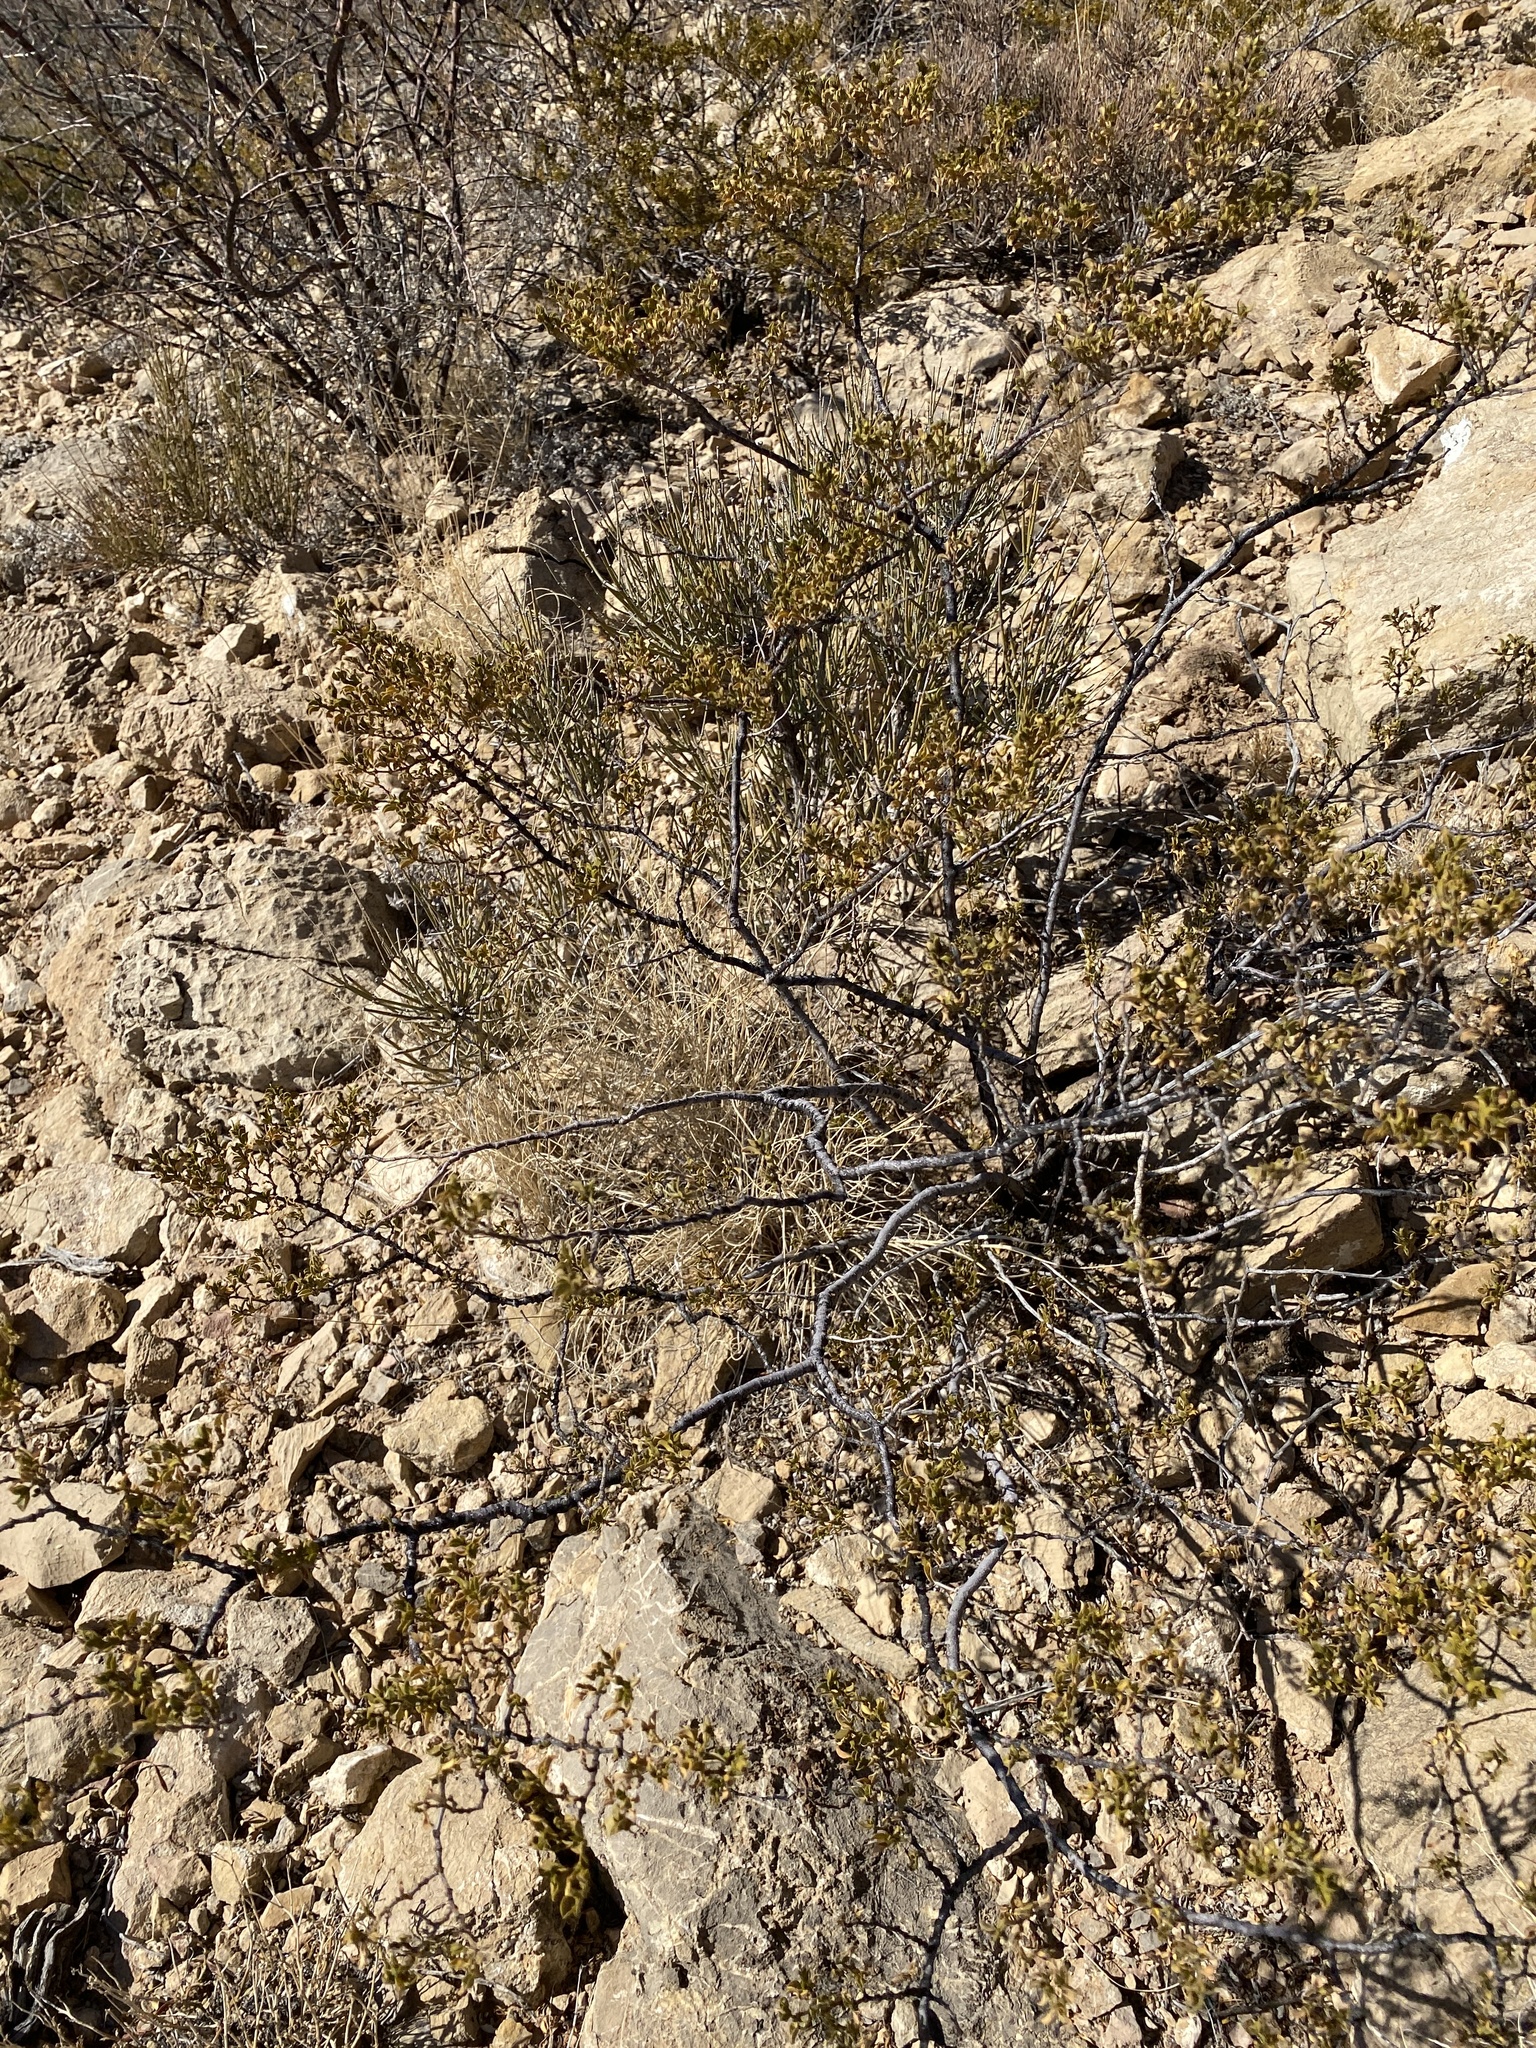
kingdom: Plantae
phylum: Tracheophyta
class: Magnoliopsida
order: Zygophyllales
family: Zygophyllaceae
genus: Larrea
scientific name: Larrea tridentata
